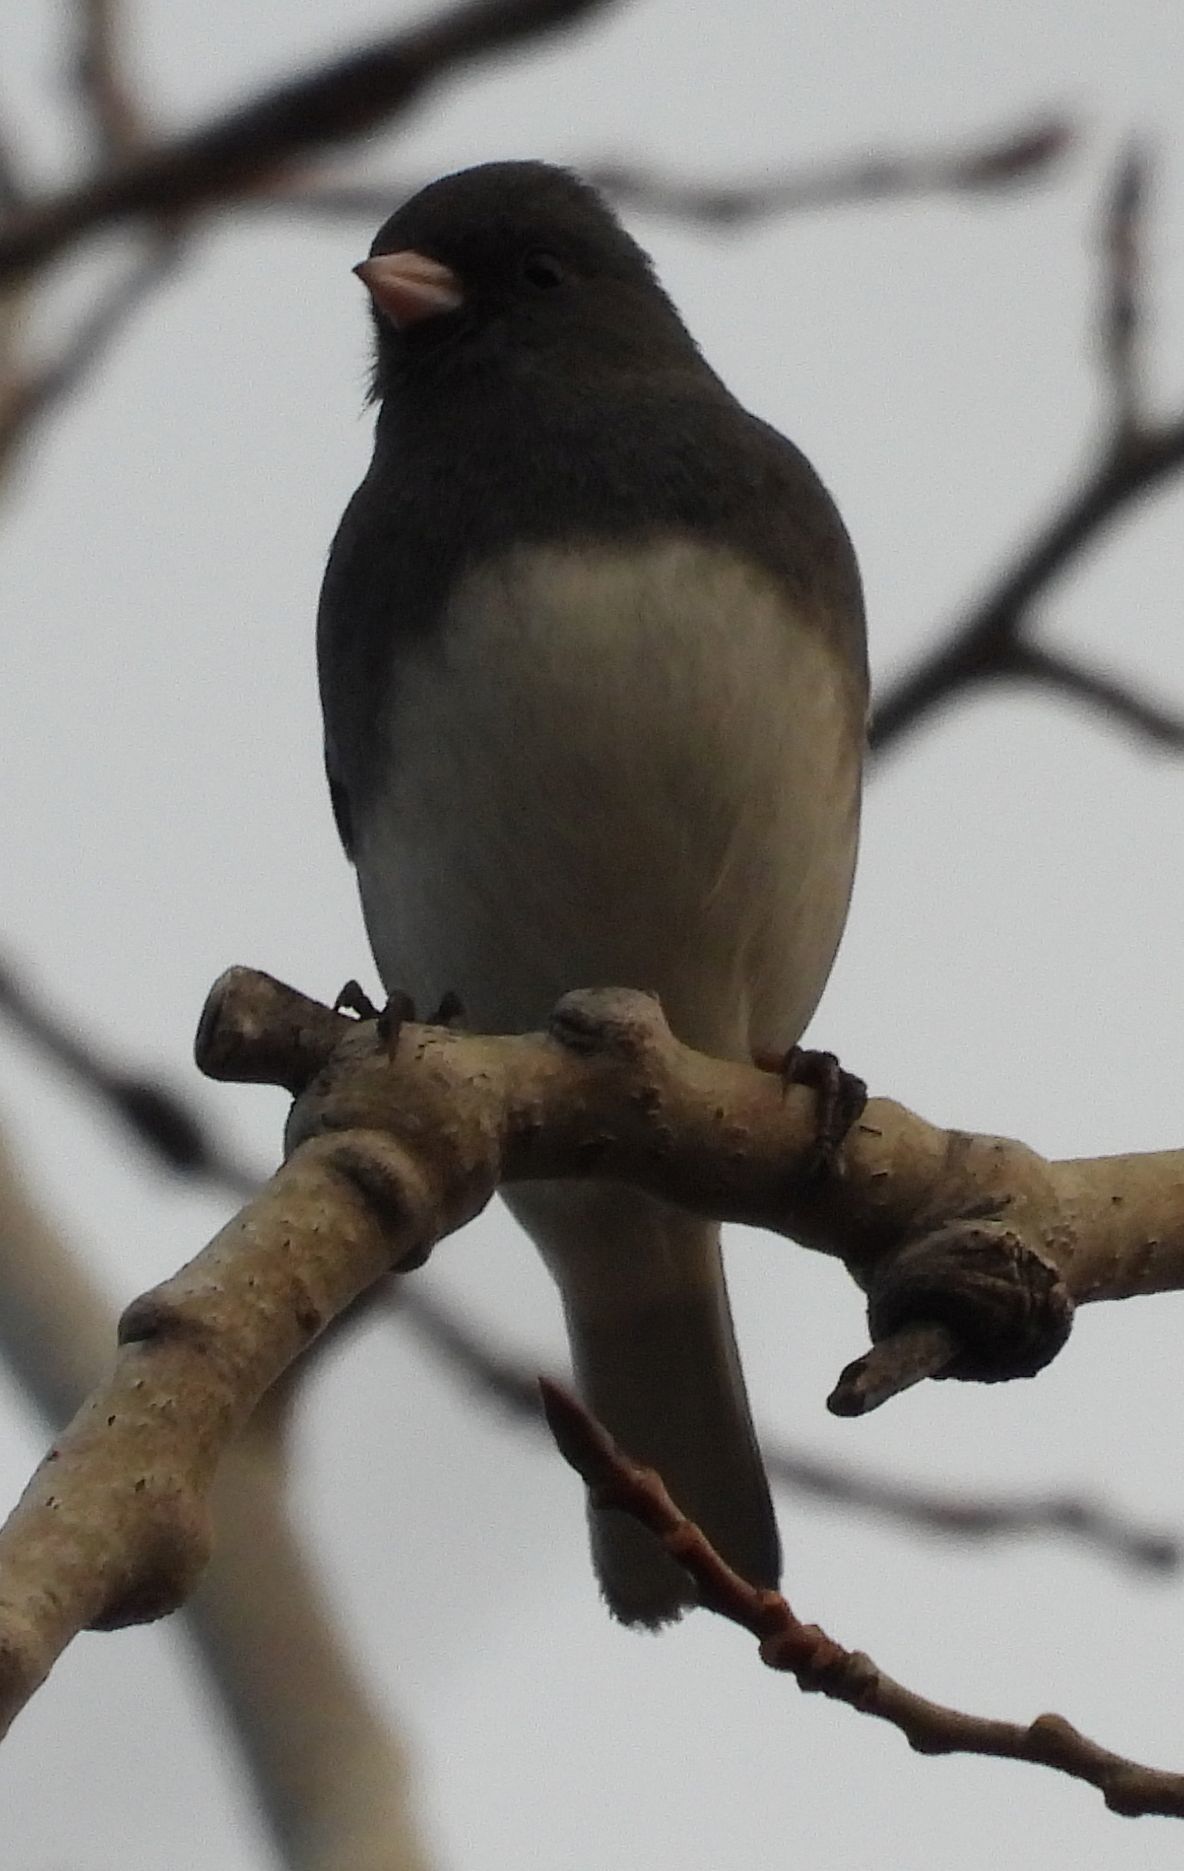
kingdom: Animalia
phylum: Chordata
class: Aves
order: Passeriformes
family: Passerellidae
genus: Junco
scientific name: Junco hyemalis
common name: Dark-eyed junco
